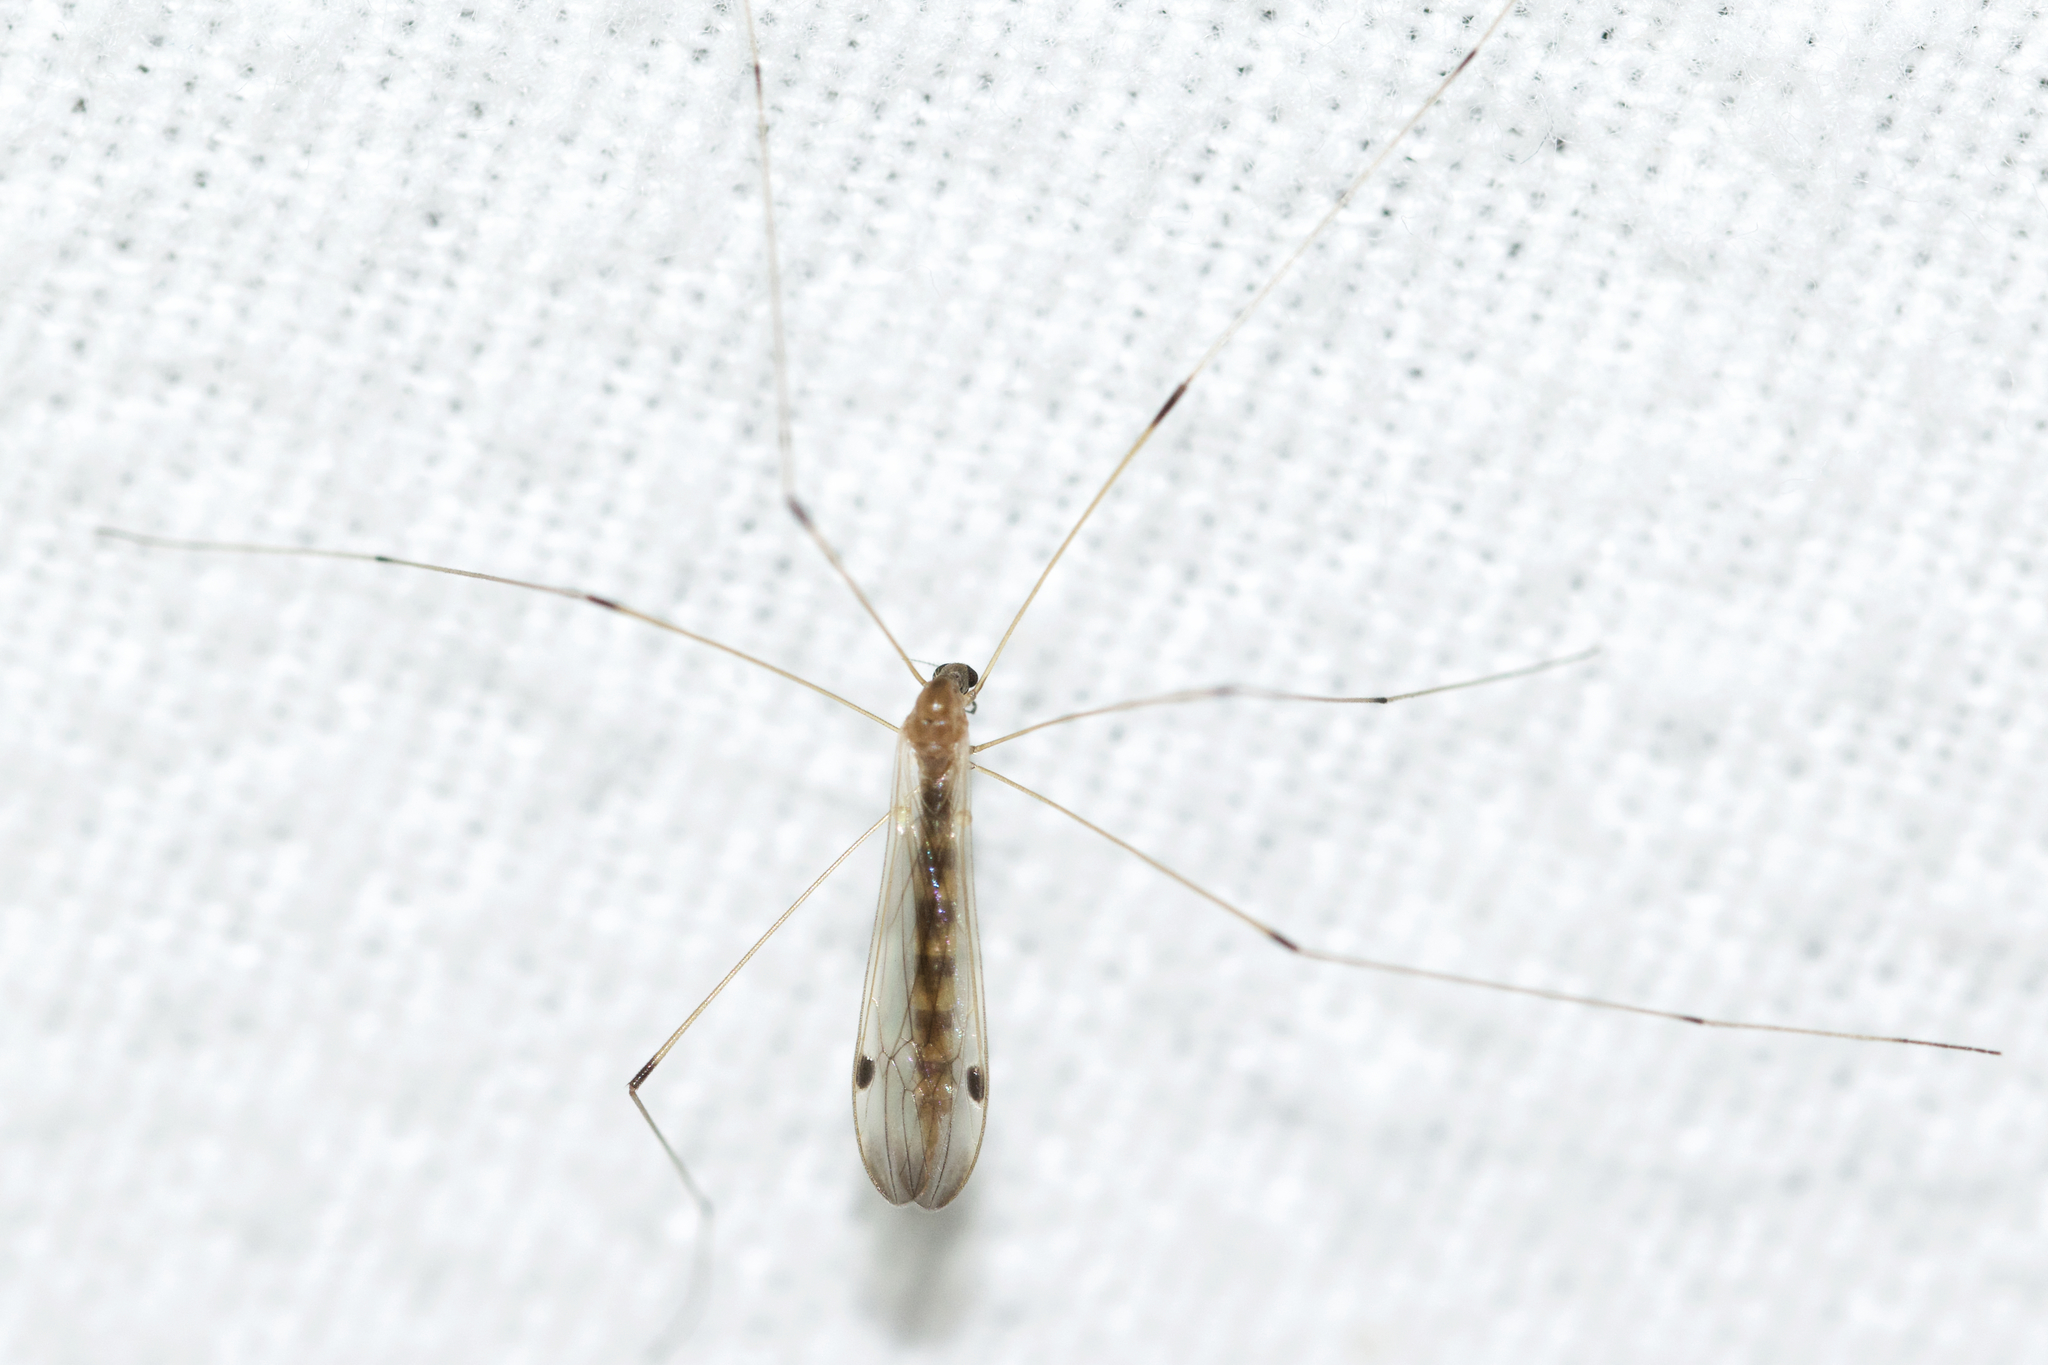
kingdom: Animalia
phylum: Arthropoda
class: Insecta
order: Diptera
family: Limoniidae
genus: Helius
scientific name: Helius flavipes
